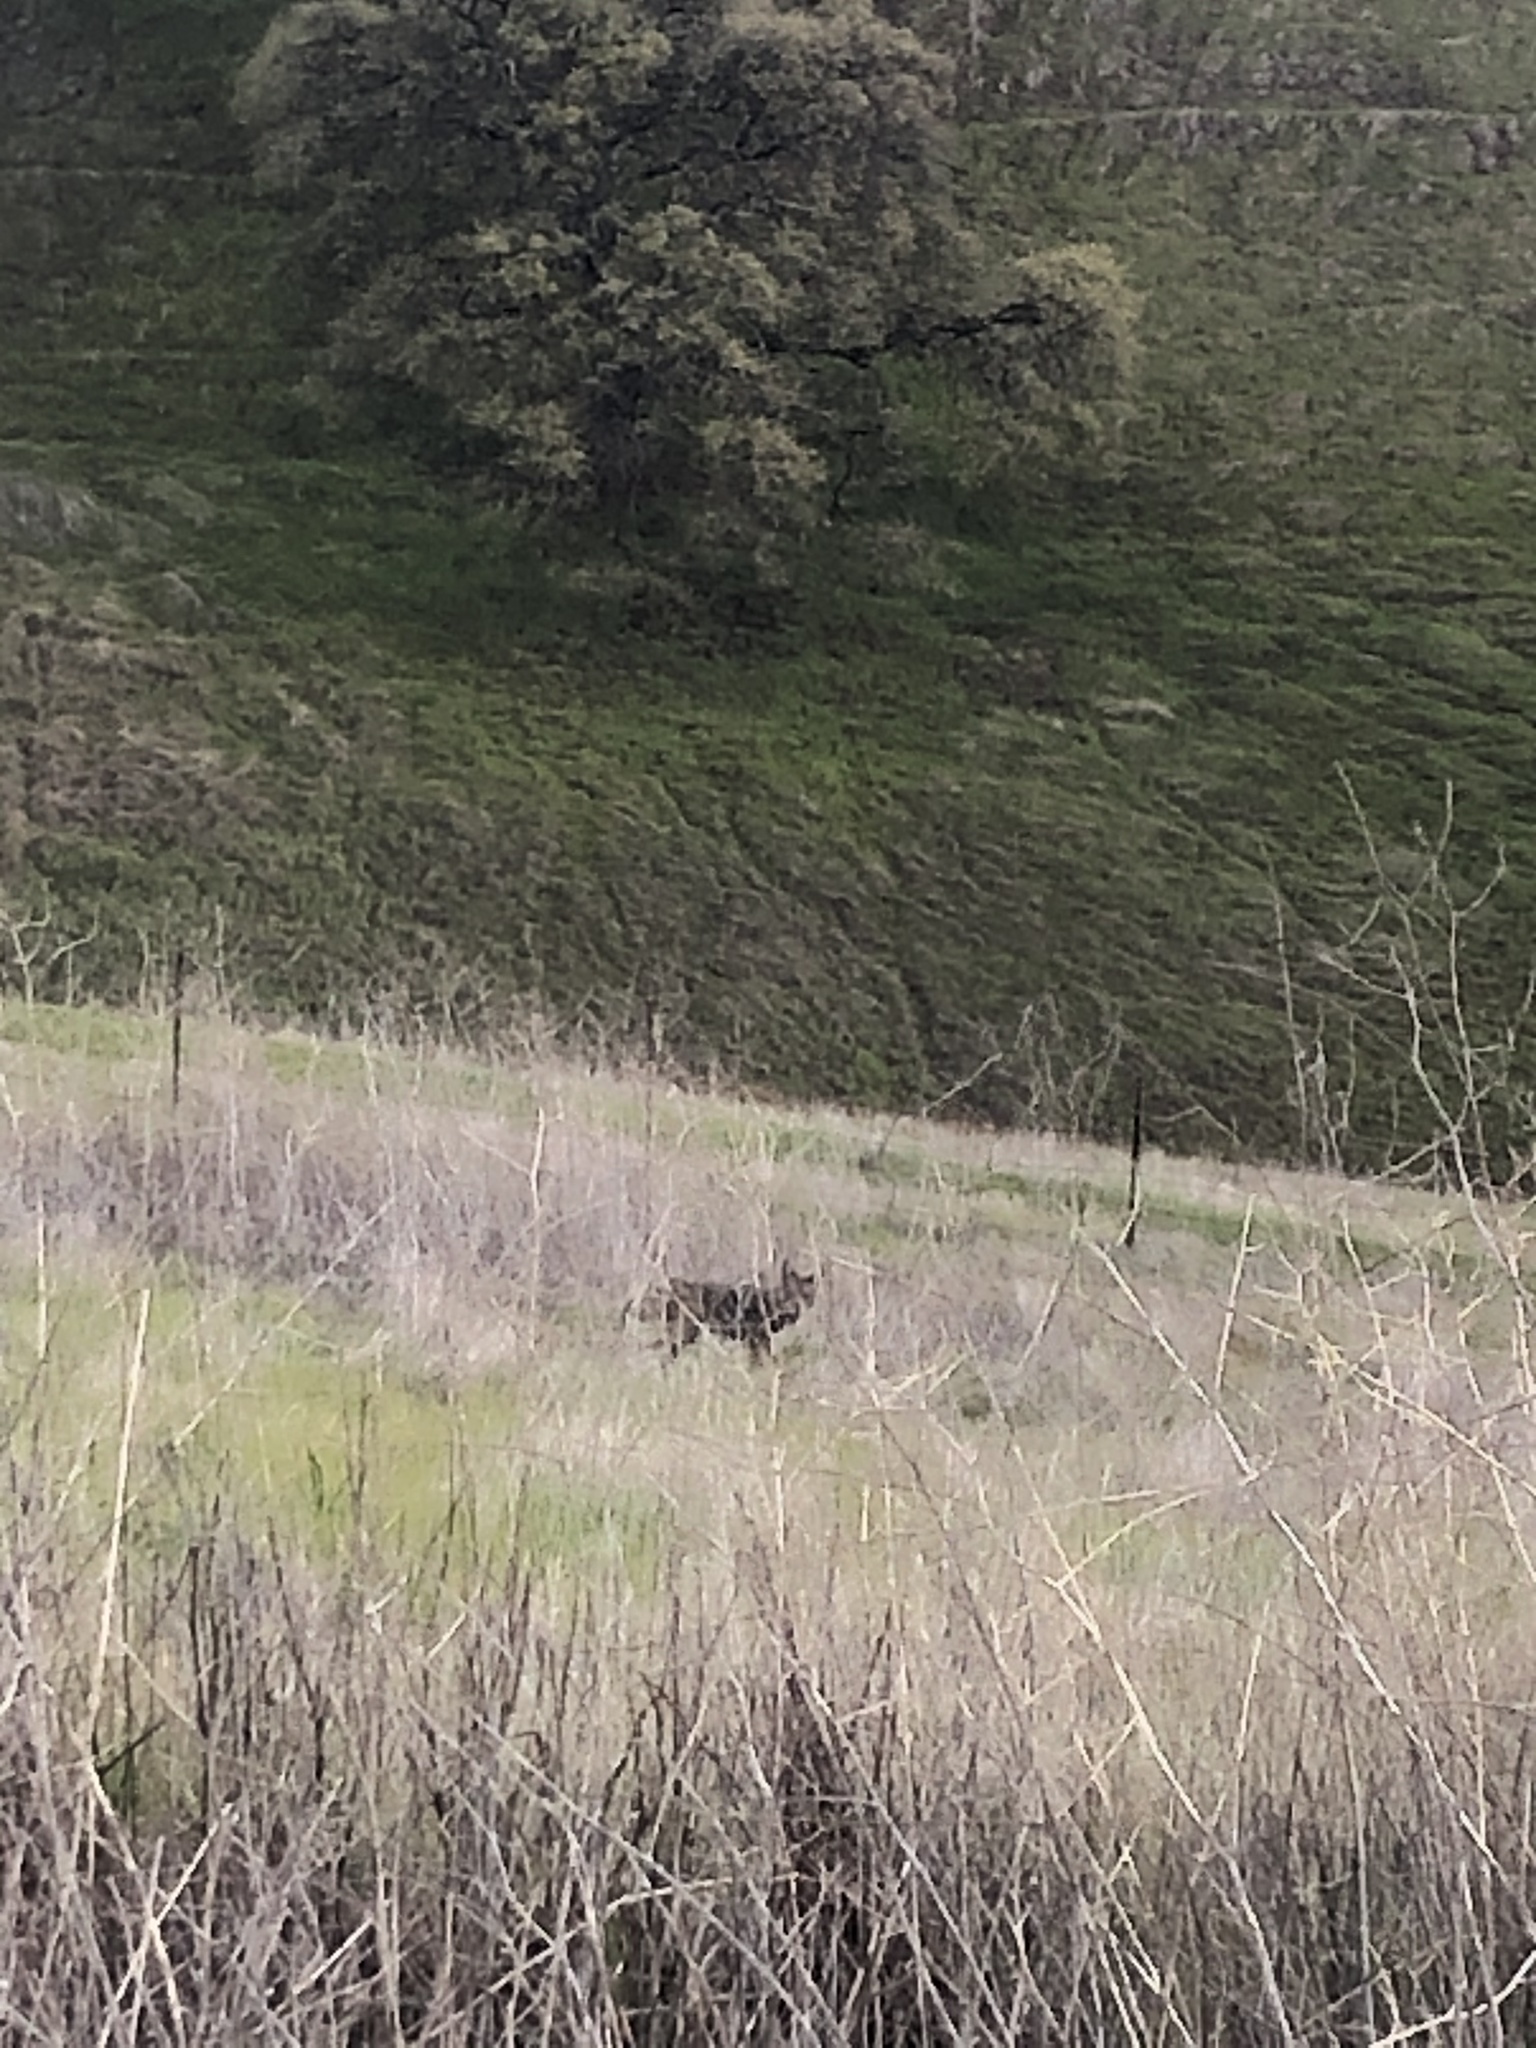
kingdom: Animalia
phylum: Chordata
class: Mammalia
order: Carnivora
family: Canidae
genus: Canis
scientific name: Canis latrans
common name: Coyote
